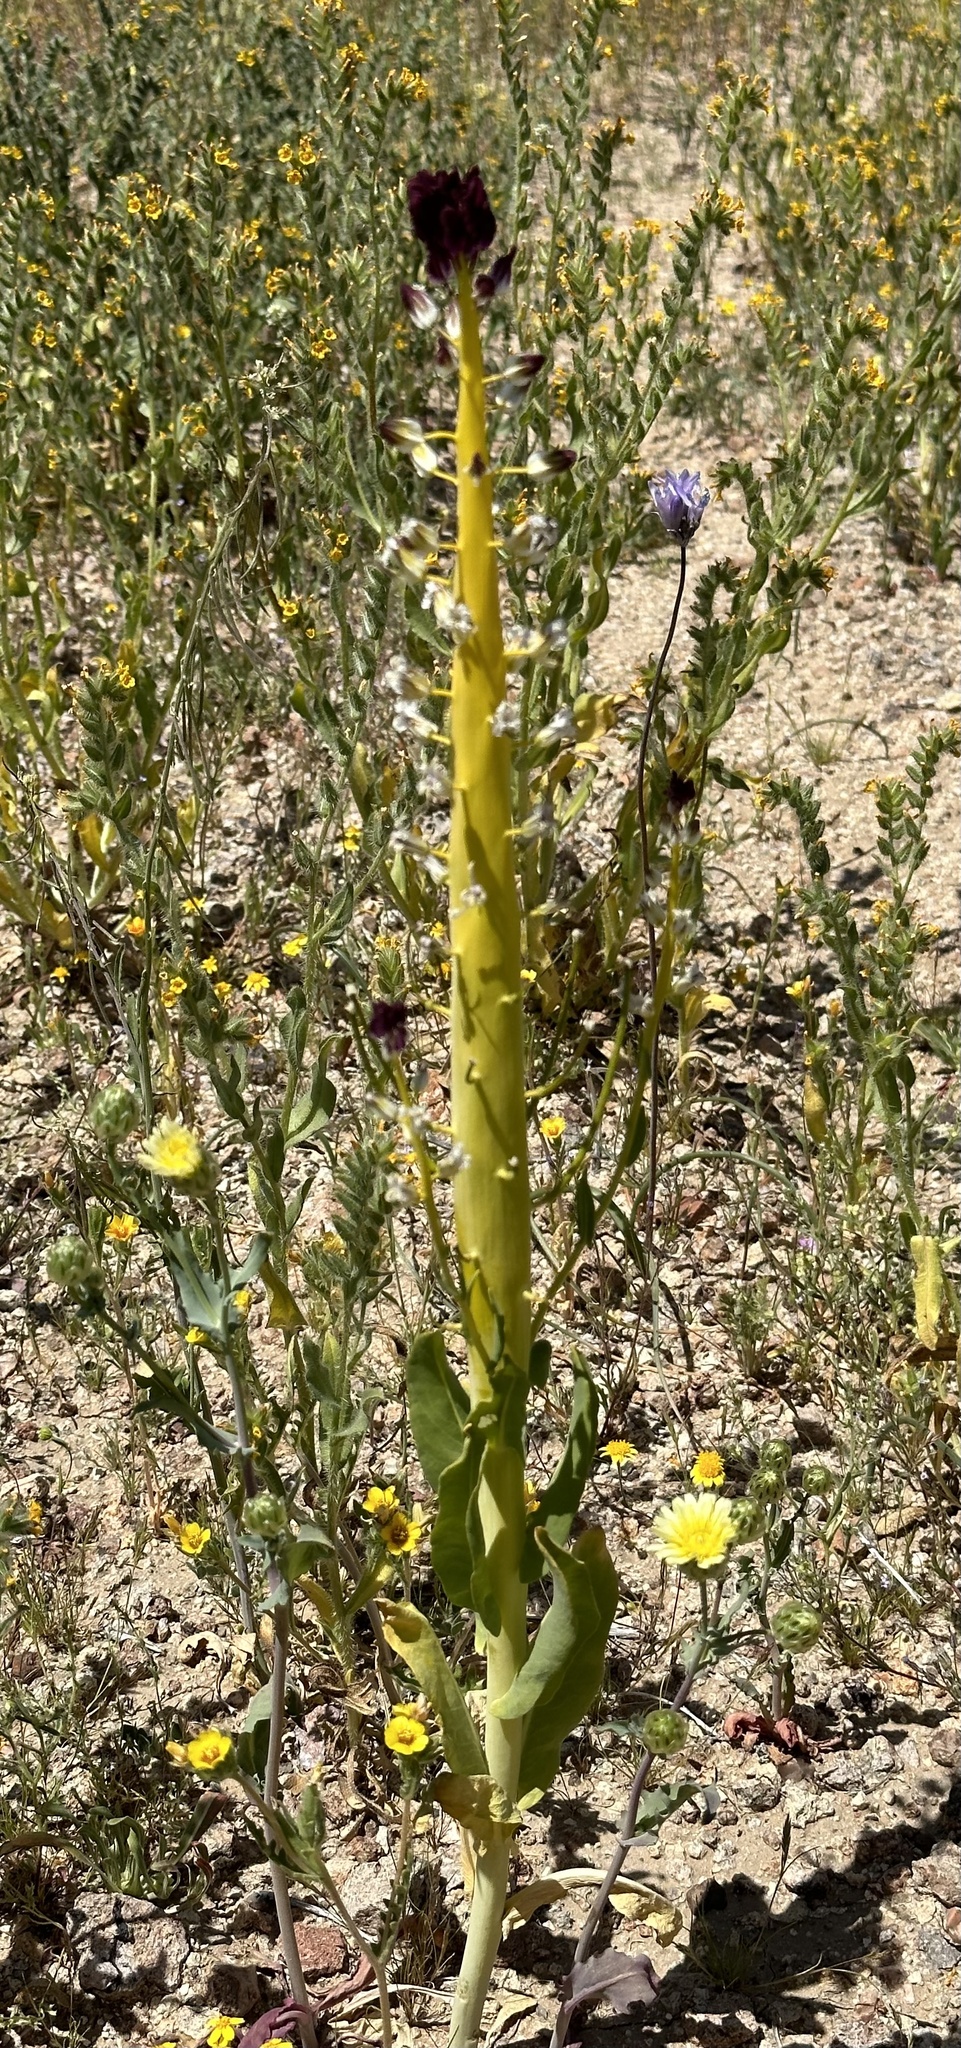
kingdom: Plantae
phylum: Tracheophyta
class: Magnoliopsida
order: Brassicales
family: Brassicaceae
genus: Streptanthus
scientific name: Streptanthus inflatus
